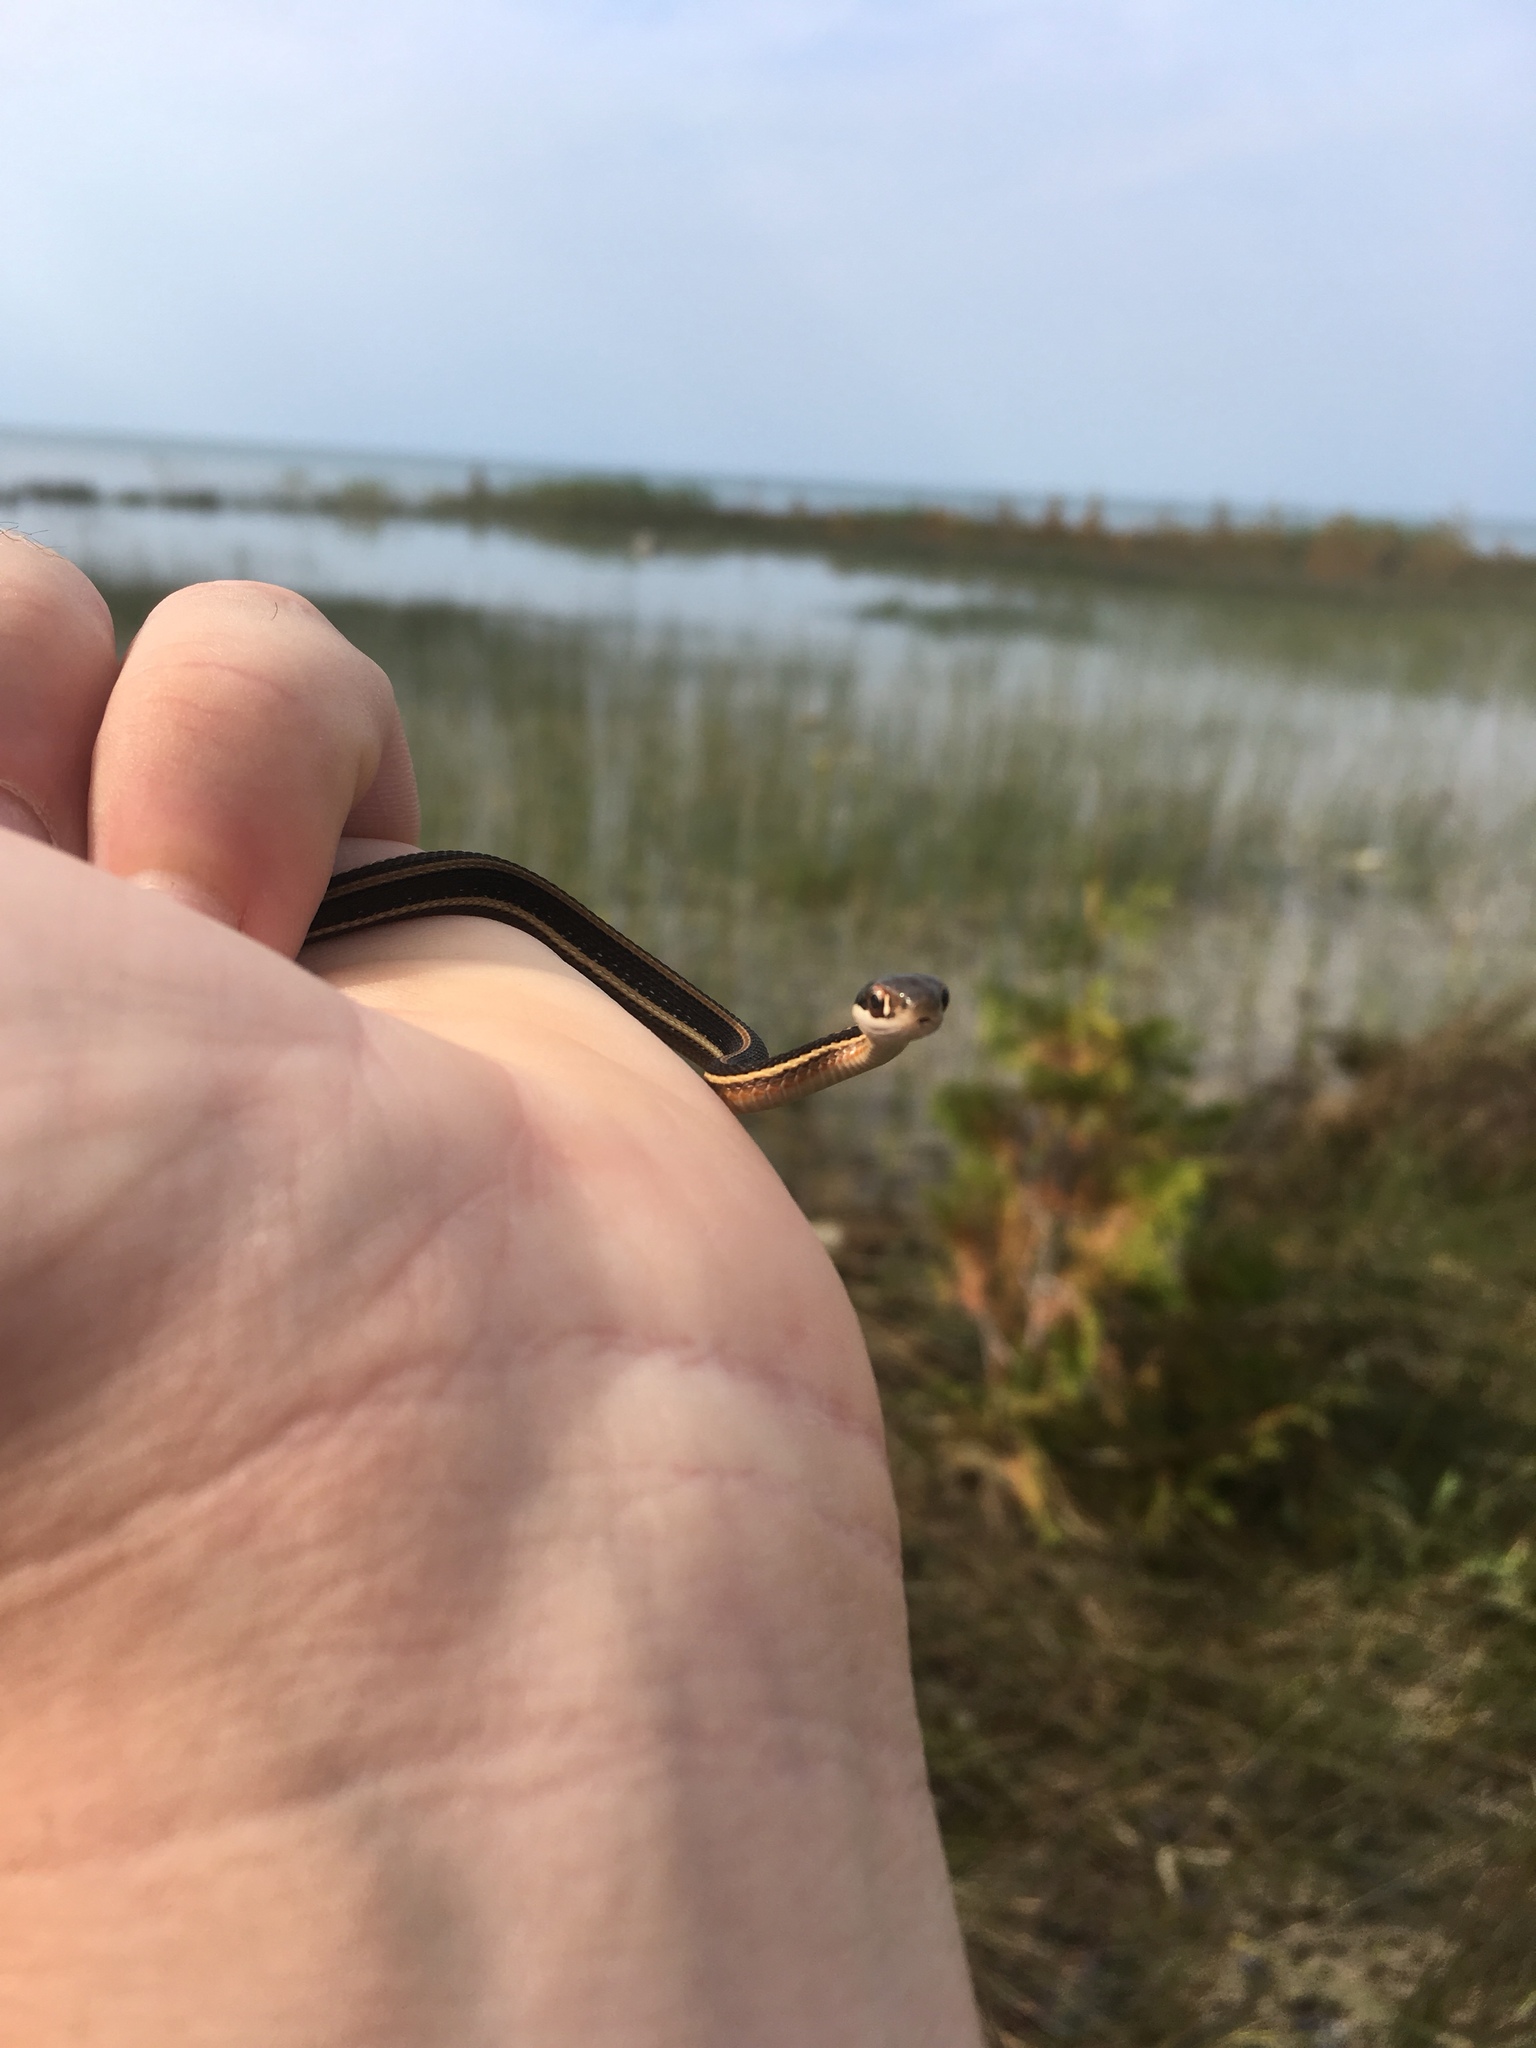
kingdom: Animalia
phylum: Chordata
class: Squamata
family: Colubridae
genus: Thamnophis
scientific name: Thamnophis saurita
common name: Eastern ribbonsnake
